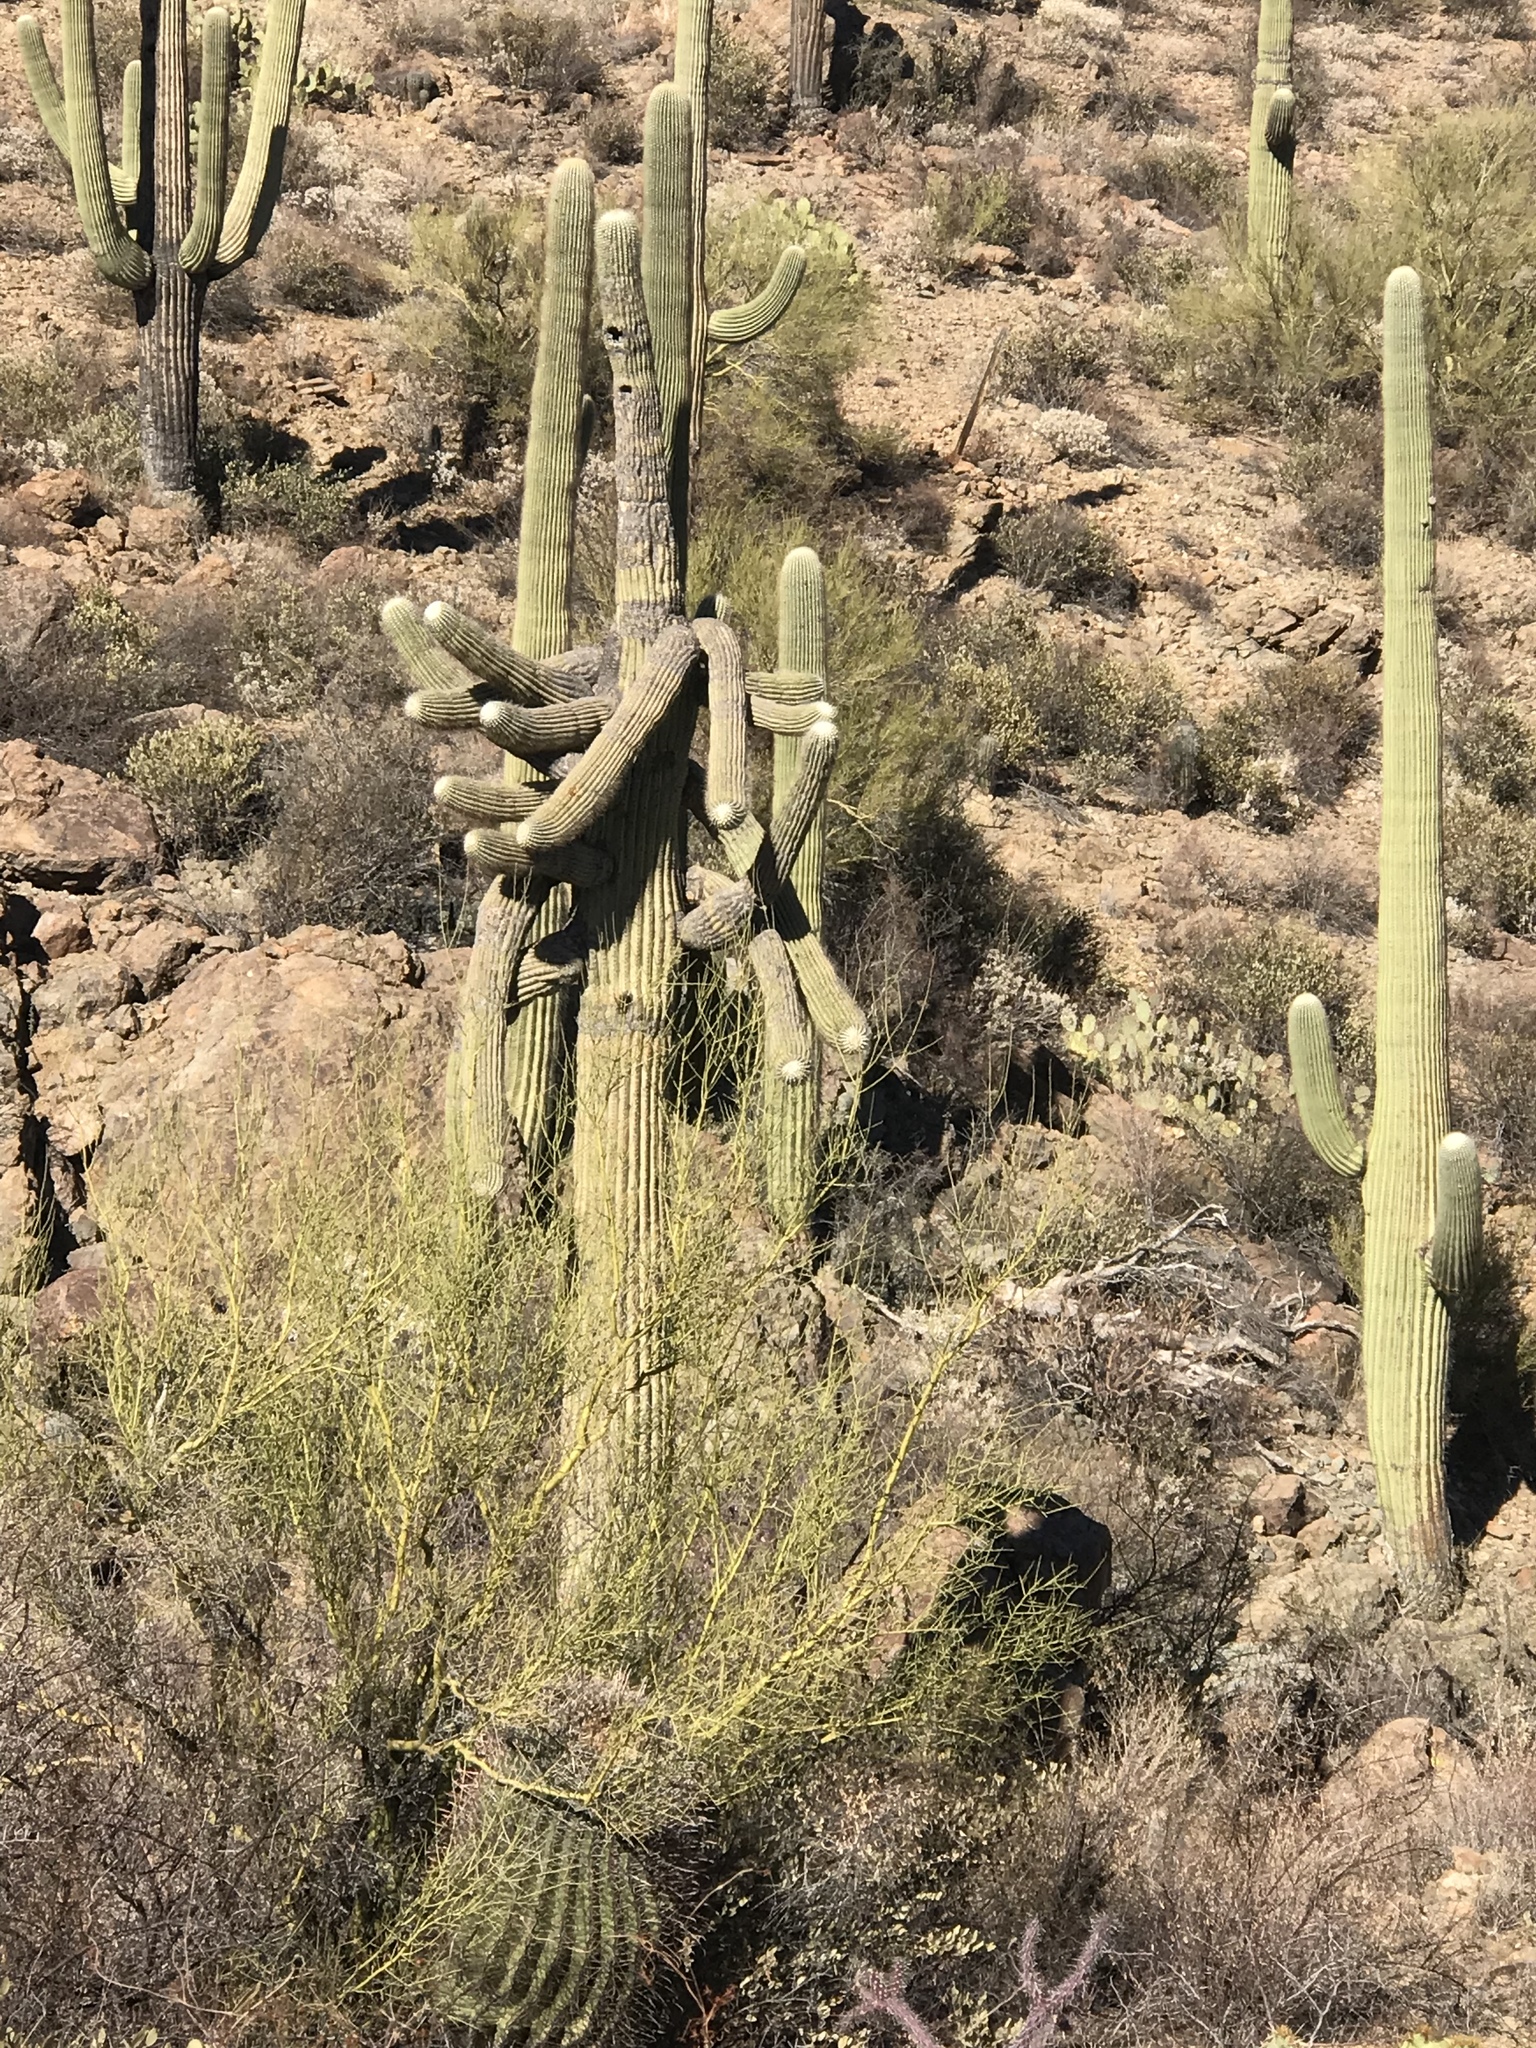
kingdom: Plantae
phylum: Tracheophyta
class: Magnoliopsida
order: Caryophyllales
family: Cactaceae
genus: Carnegiea
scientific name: Carnegiea gigantea
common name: Saguaro
